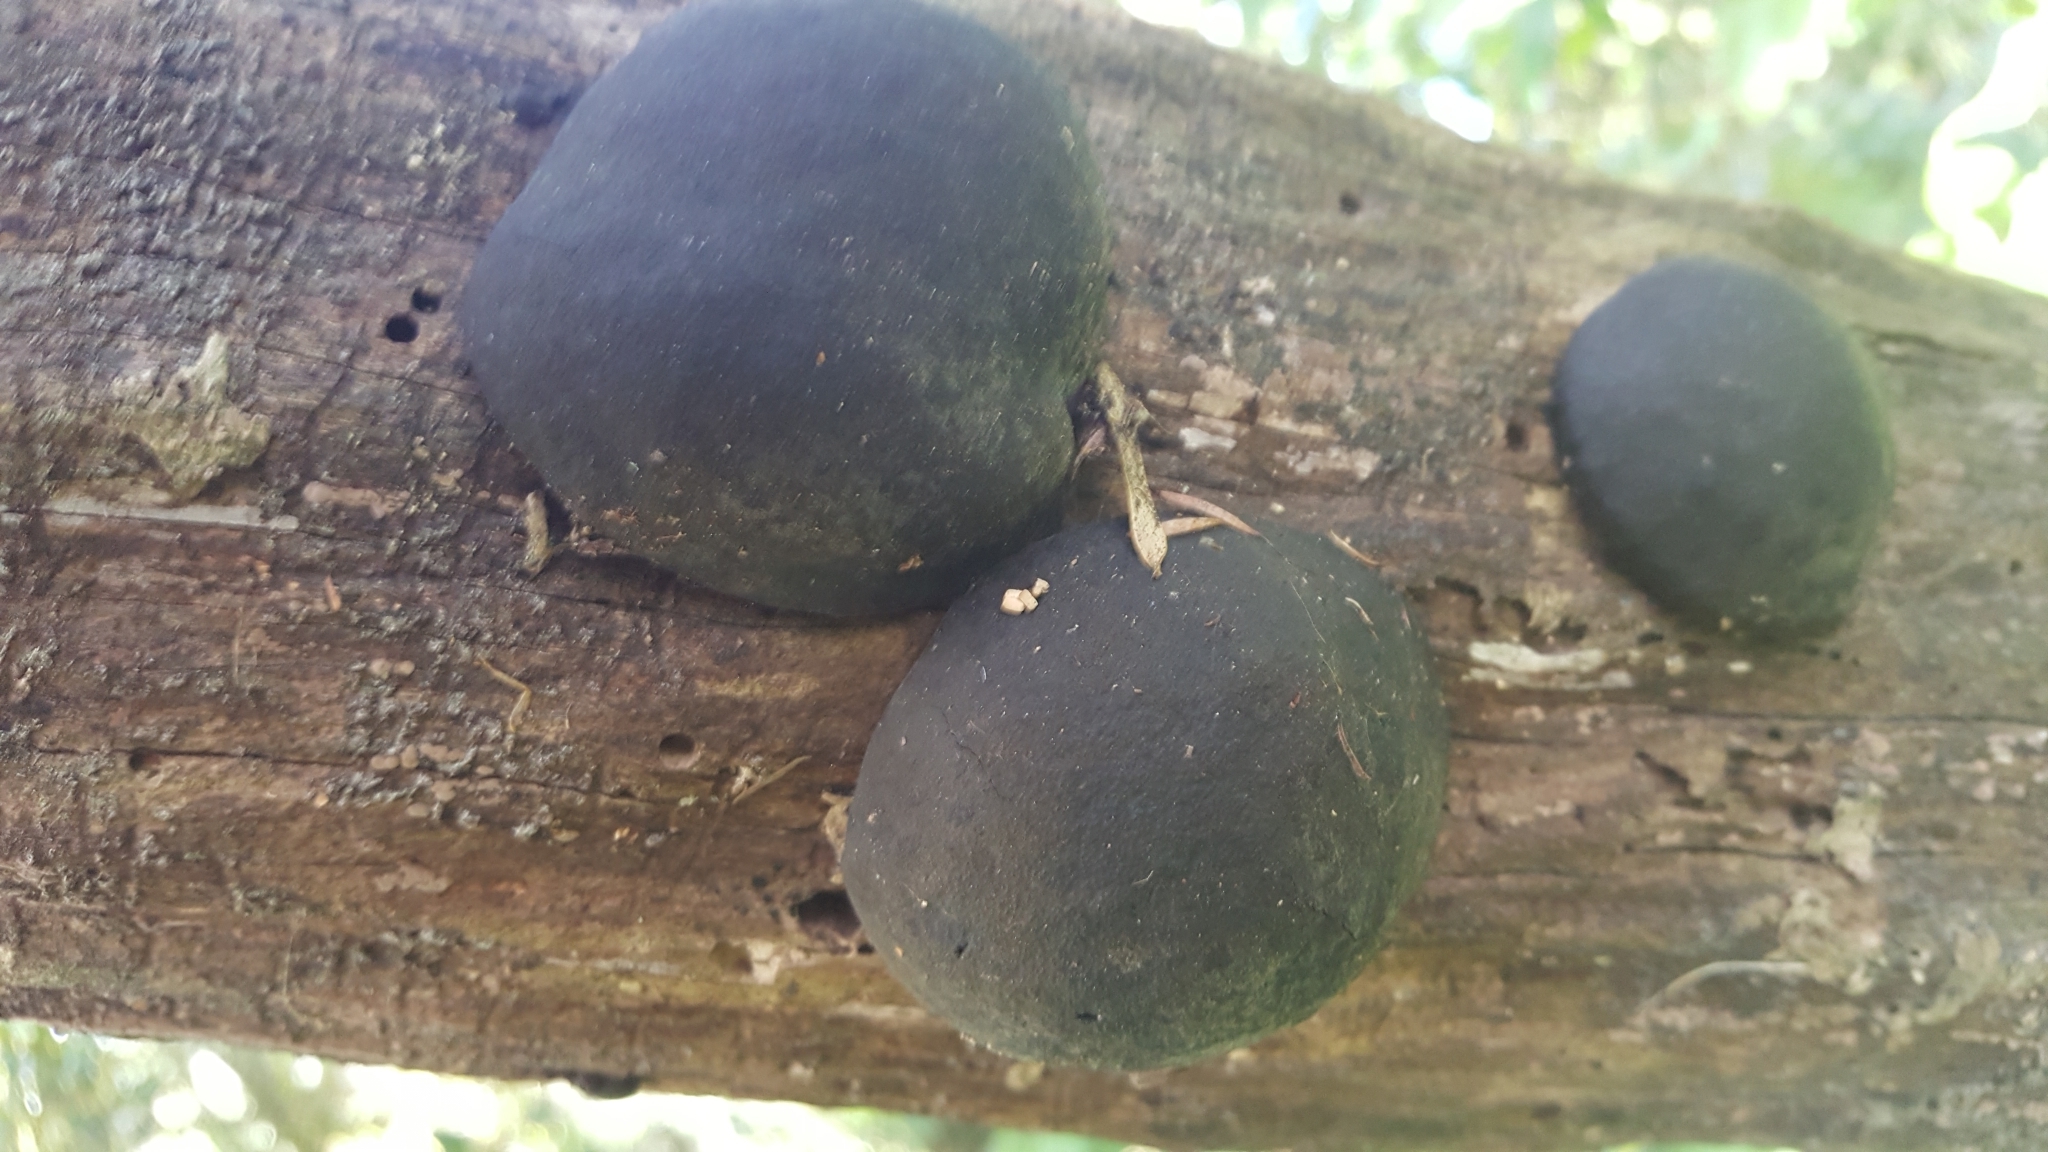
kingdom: Fungi
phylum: Ascomycota
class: Sordariomycetes
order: Xylariales
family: Hypoxylaceae
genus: Daldinia
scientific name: Daldinia
